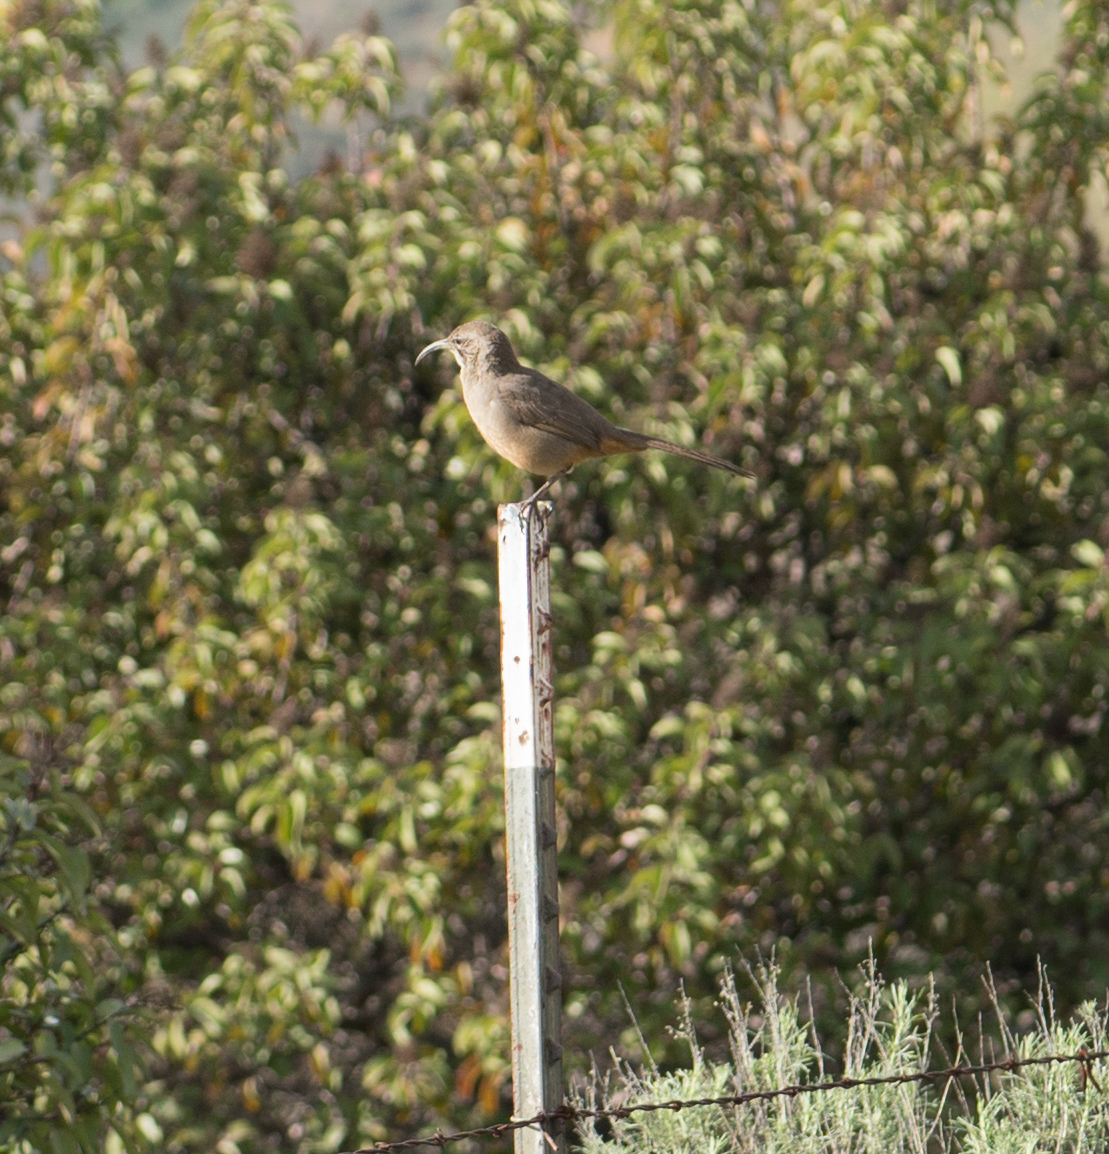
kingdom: Animalia
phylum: Chordata
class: Aves
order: Passeriformes
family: Mimidae
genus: Toxostoma
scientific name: Toxostoma redivivum
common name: California thrasher
